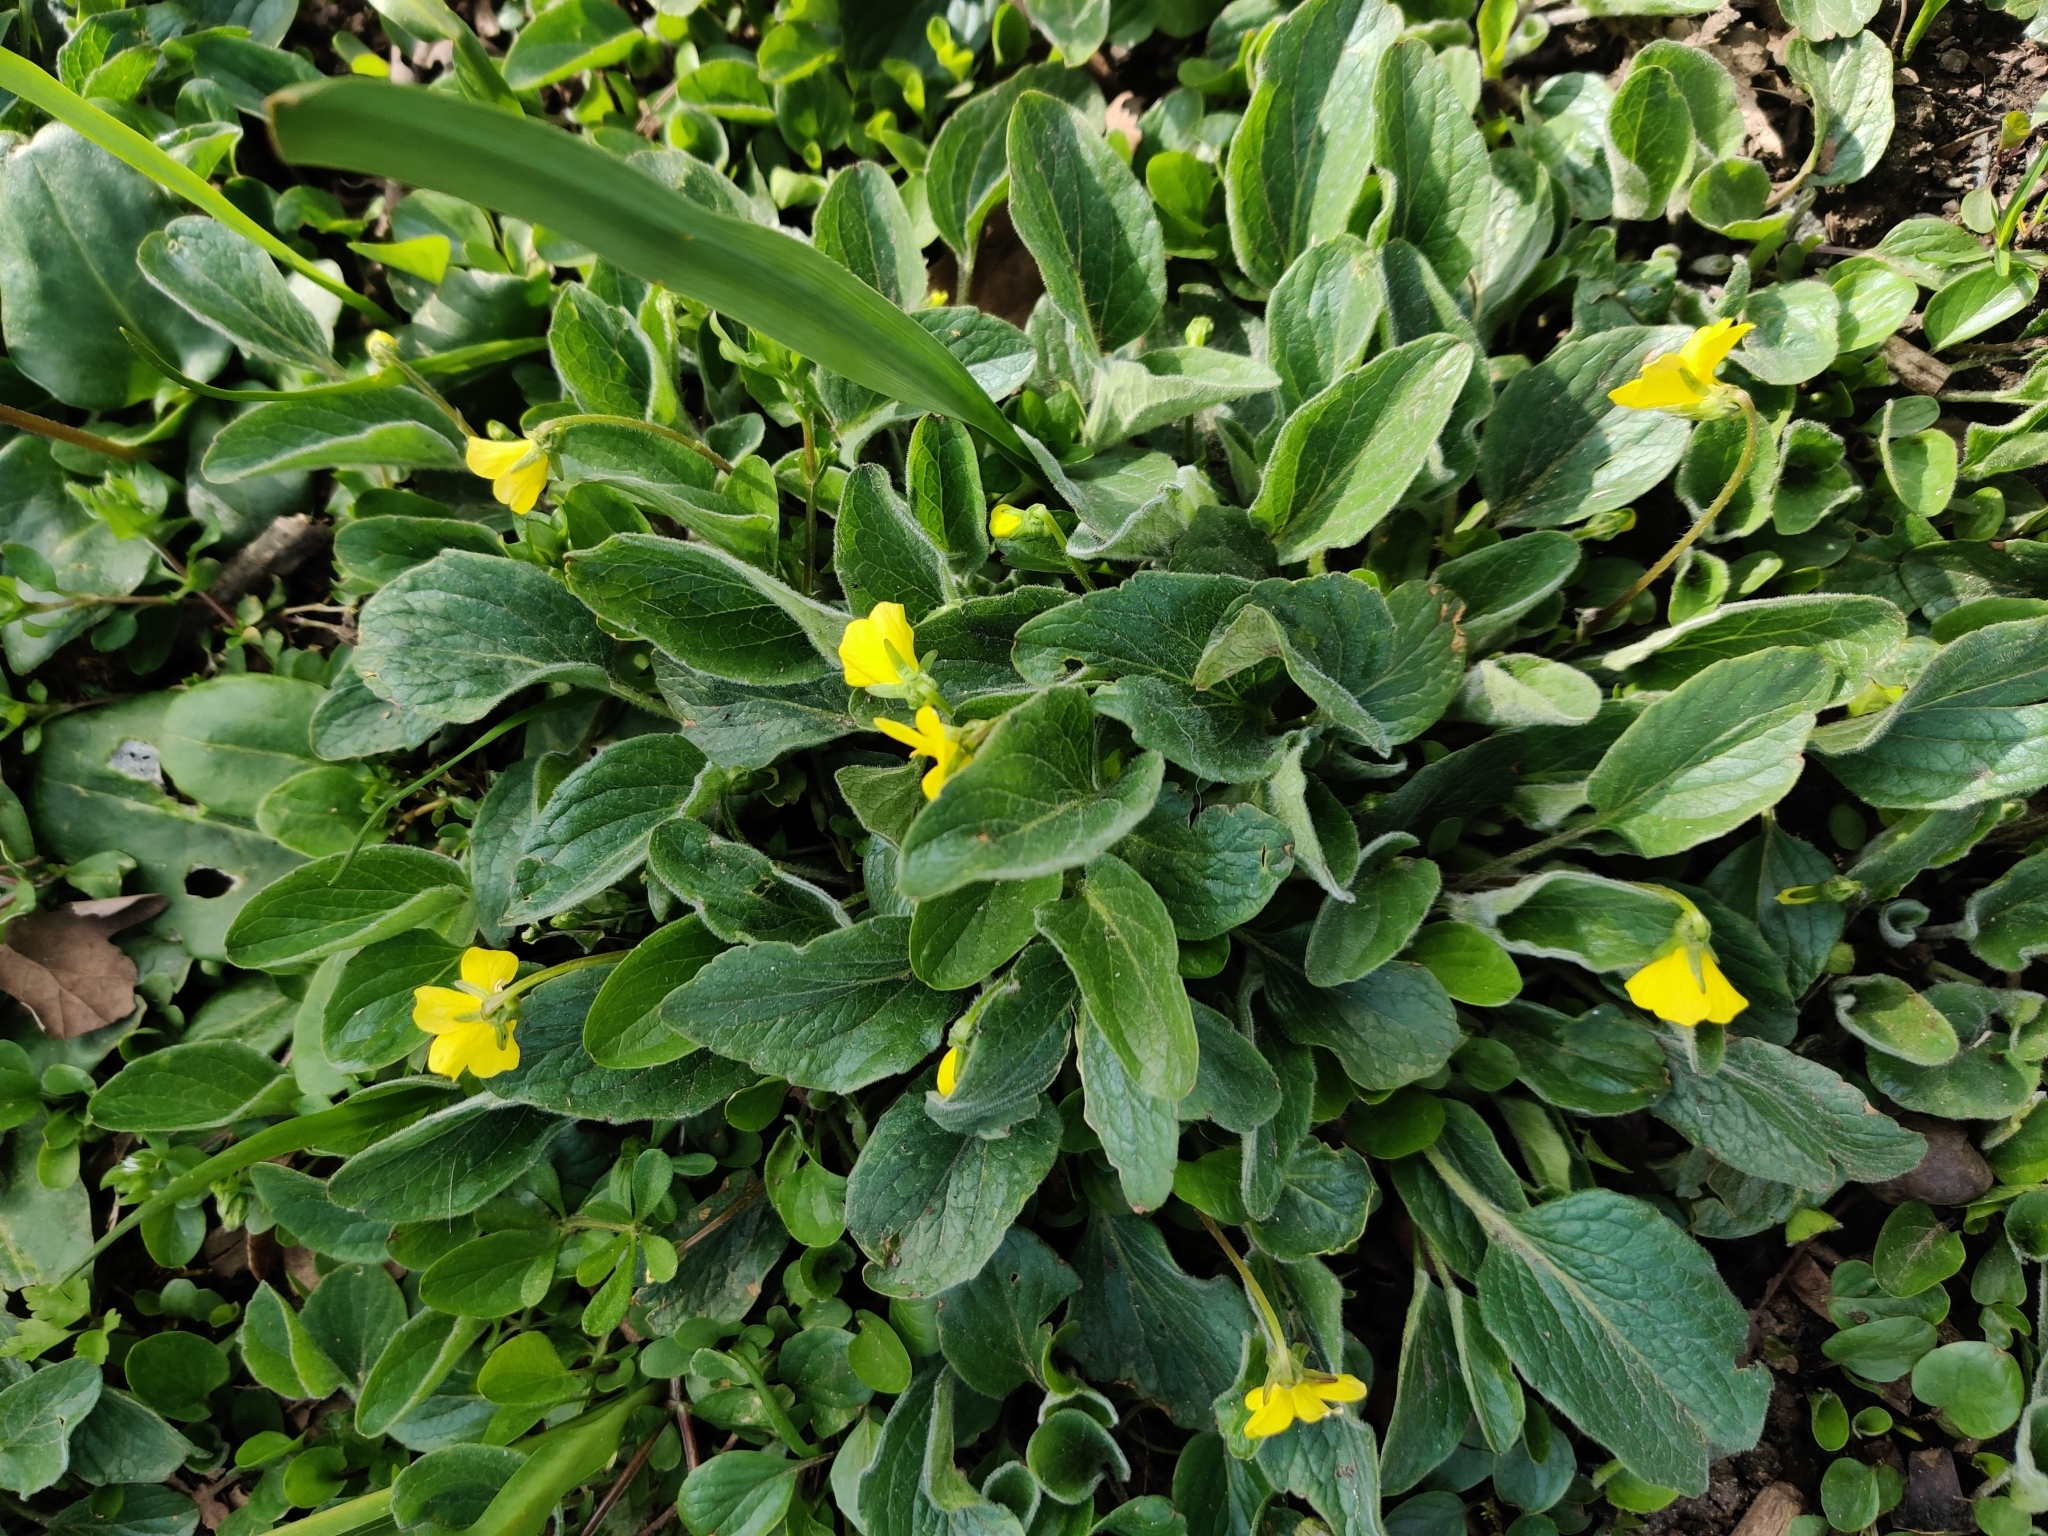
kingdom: Plantae
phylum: Tracheophyta
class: Magnoliopsida
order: Malpighiales
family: Violaceae
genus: Viola
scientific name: Viola praemorsa
